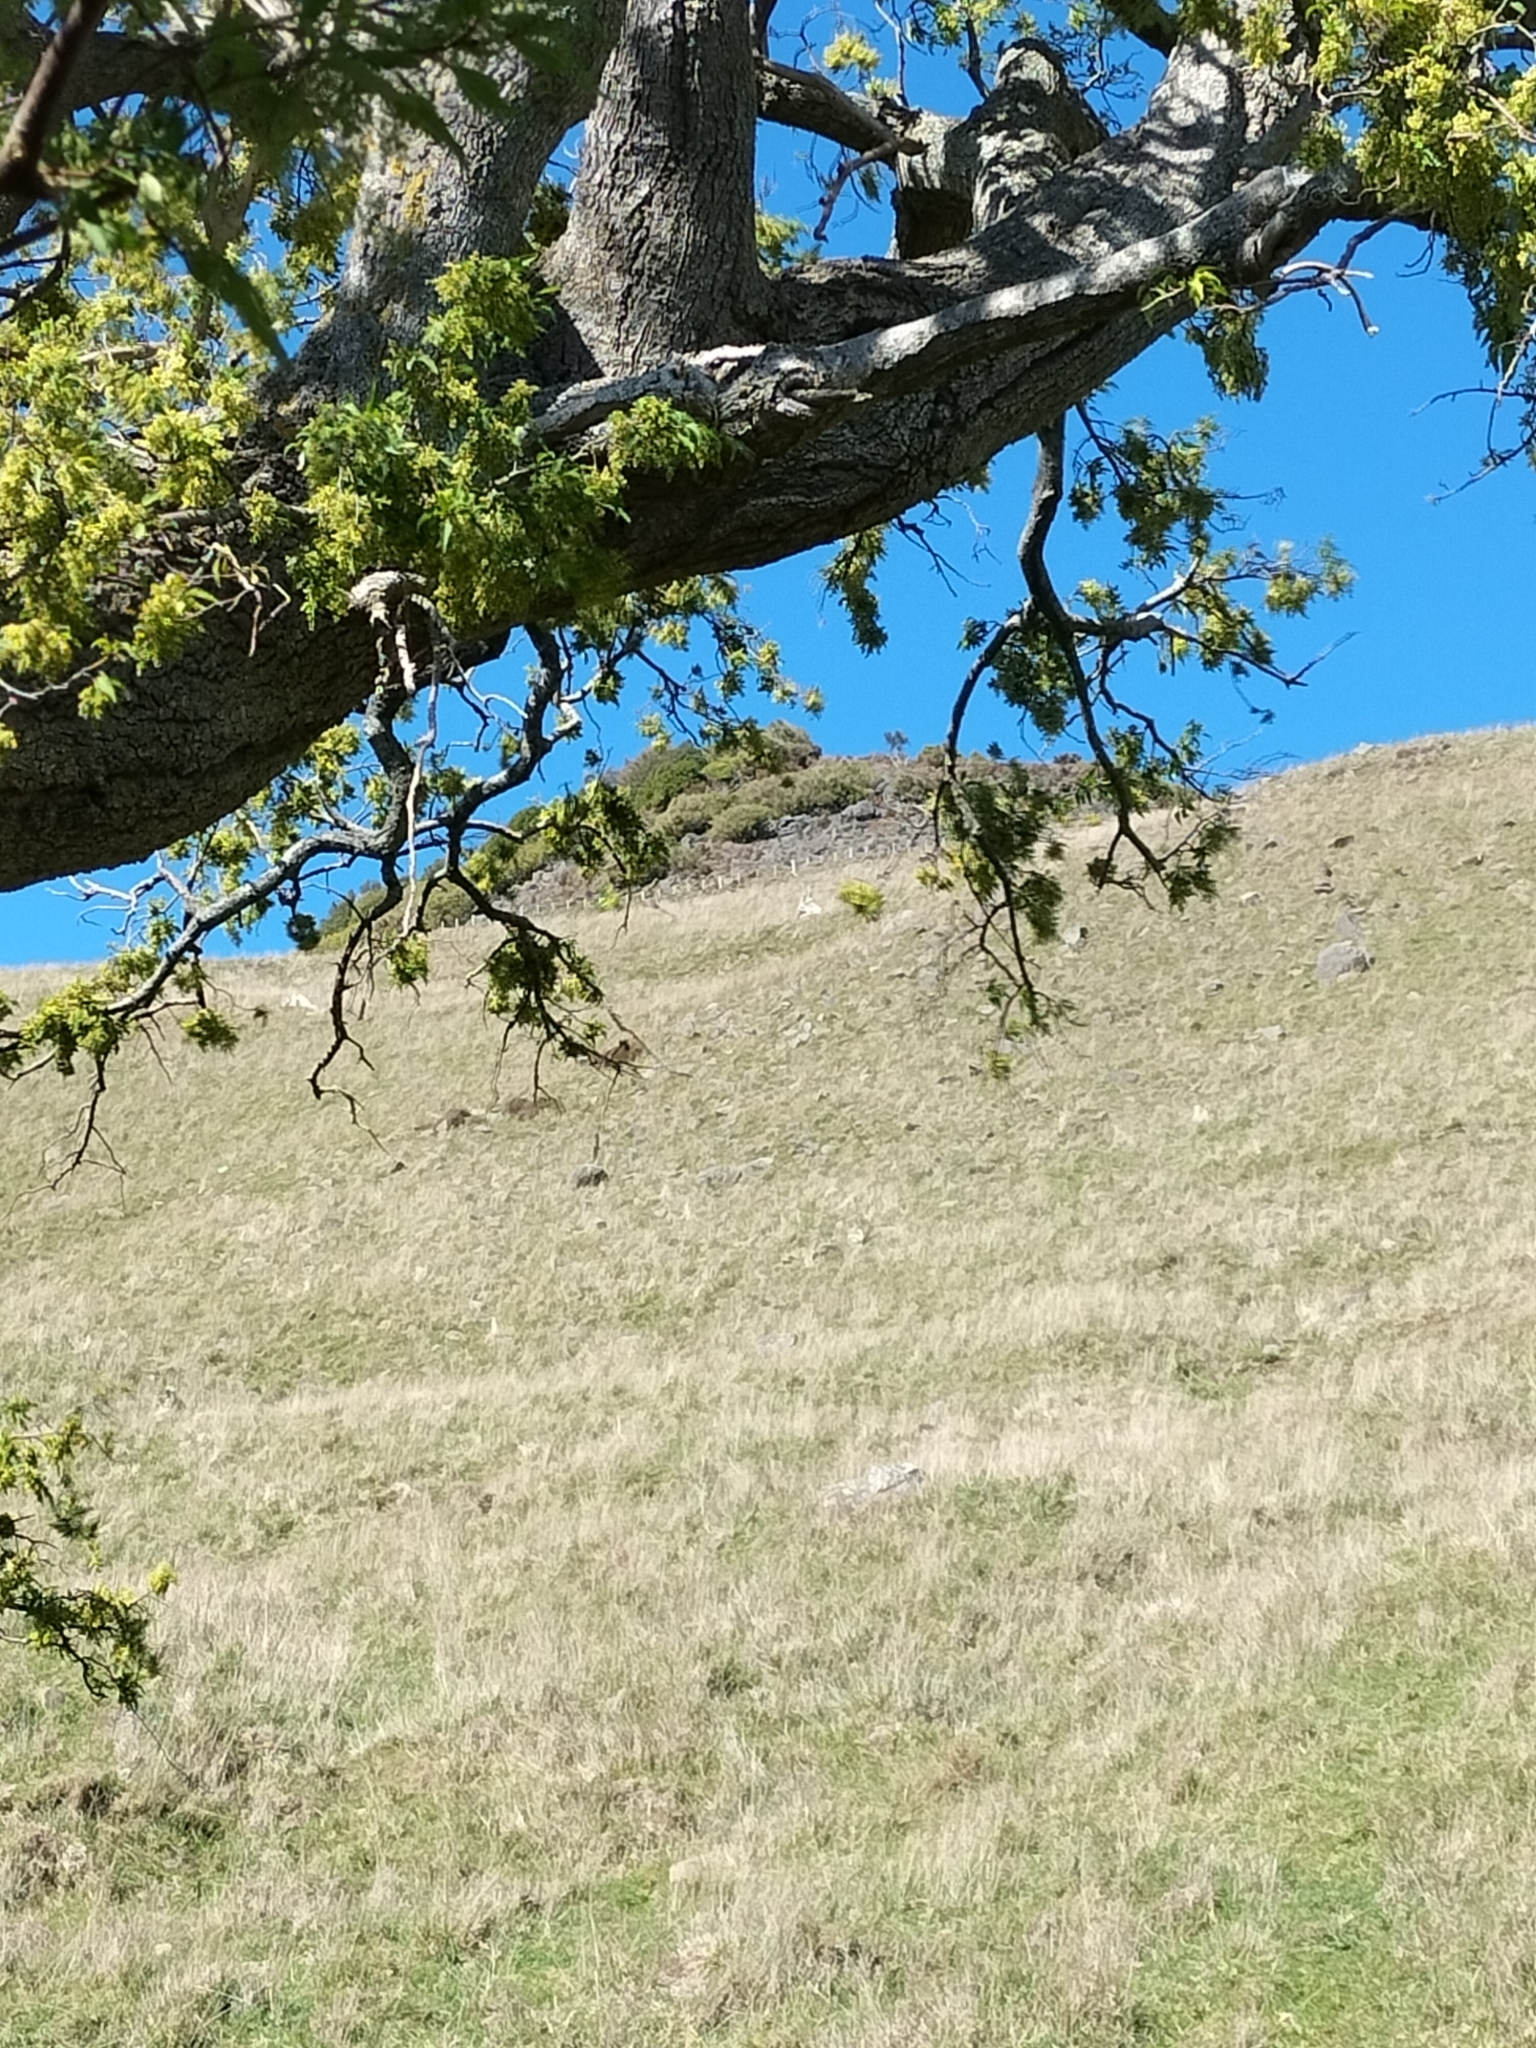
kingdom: Plantae
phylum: Tracheophyta
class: Magnoliopsida
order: Malvales
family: Malvaceae
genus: Plagianthus
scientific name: Plagianthus regius
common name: Manatu
